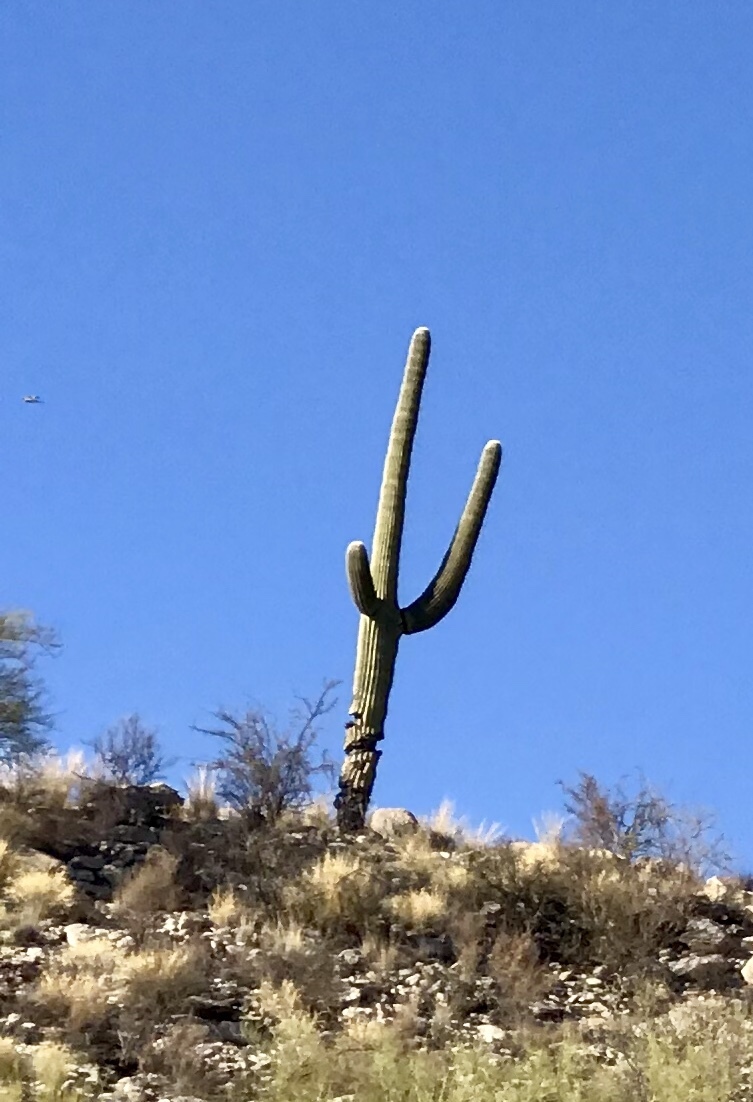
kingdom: Plantae
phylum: Tracheophyta
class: Magnoliopsida
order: Caryophyllales
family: Cactaceae
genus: Carnegiea
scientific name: Carnegiea gigantea
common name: Saguaro
